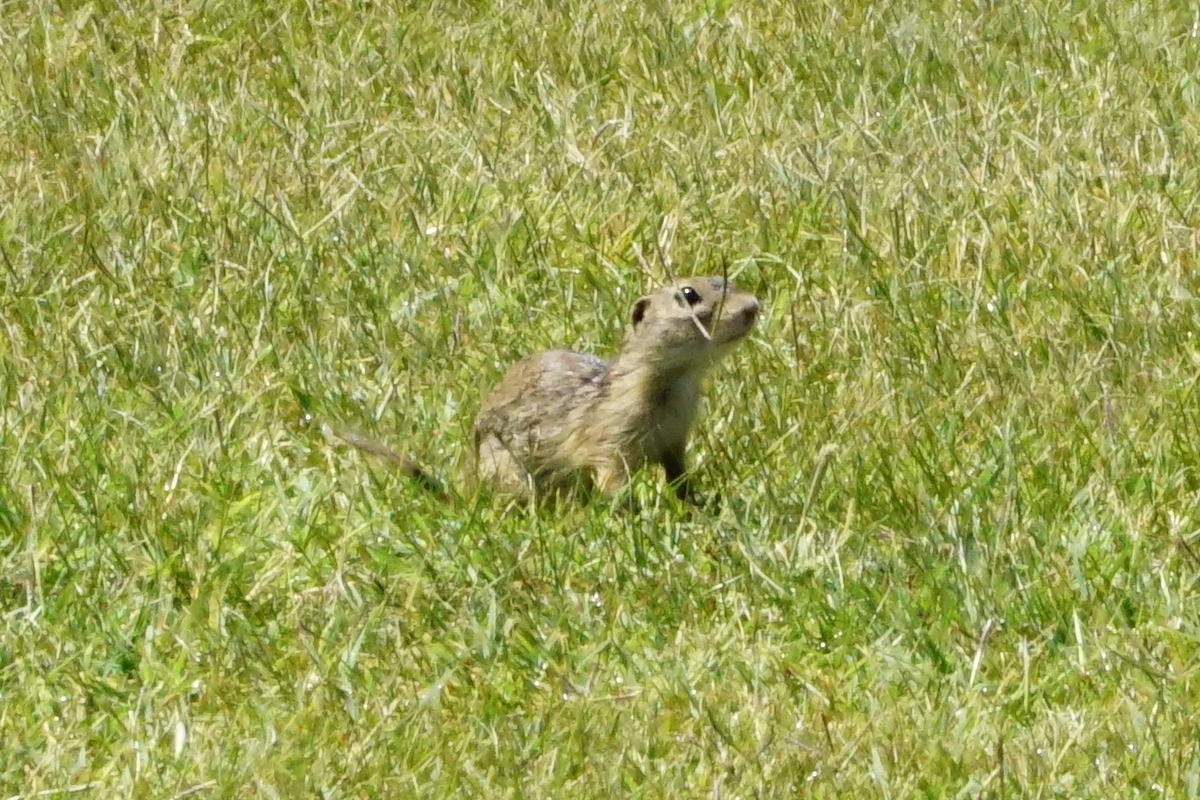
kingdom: Animalia
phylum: Chordata
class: Mammalia
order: Rodentia
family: Sciuridae
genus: Spermophilus
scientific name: Spermophilus citellus
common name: European ground squirrel
